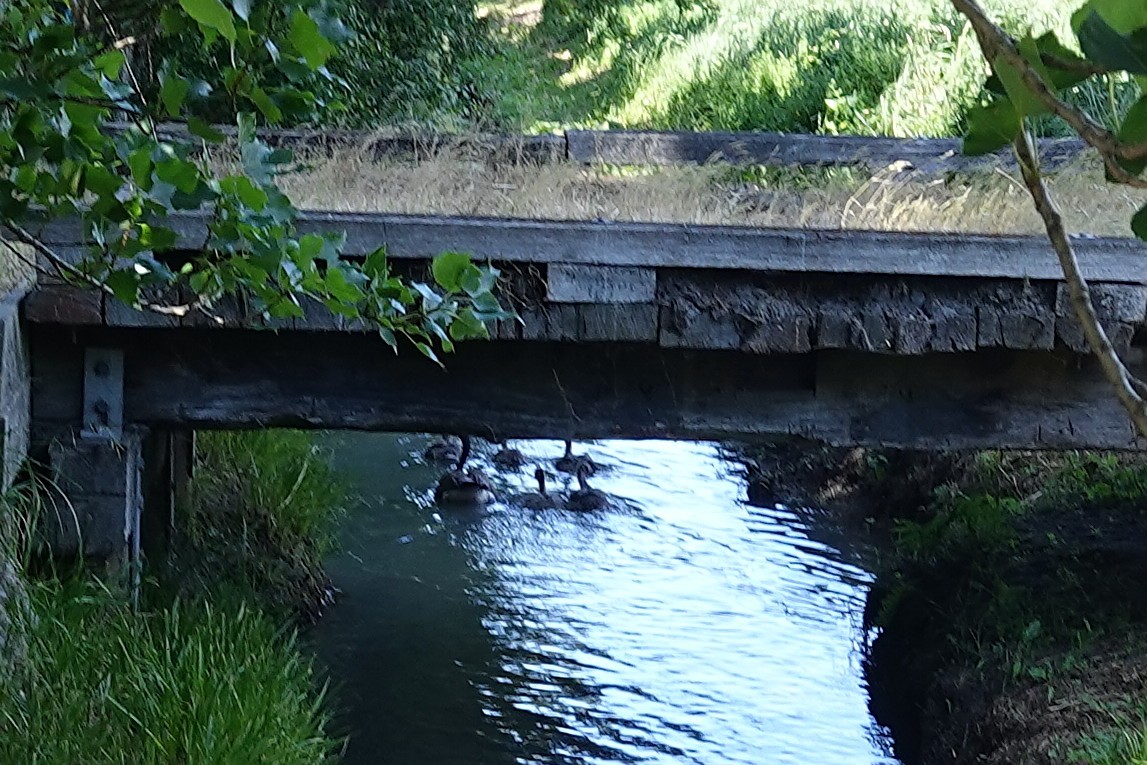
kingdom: Animalia
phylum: Chordata
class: Aves
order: Anseriformes
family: Anatidae
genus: Branta
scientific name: Branta canadensis
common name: Canada goose
